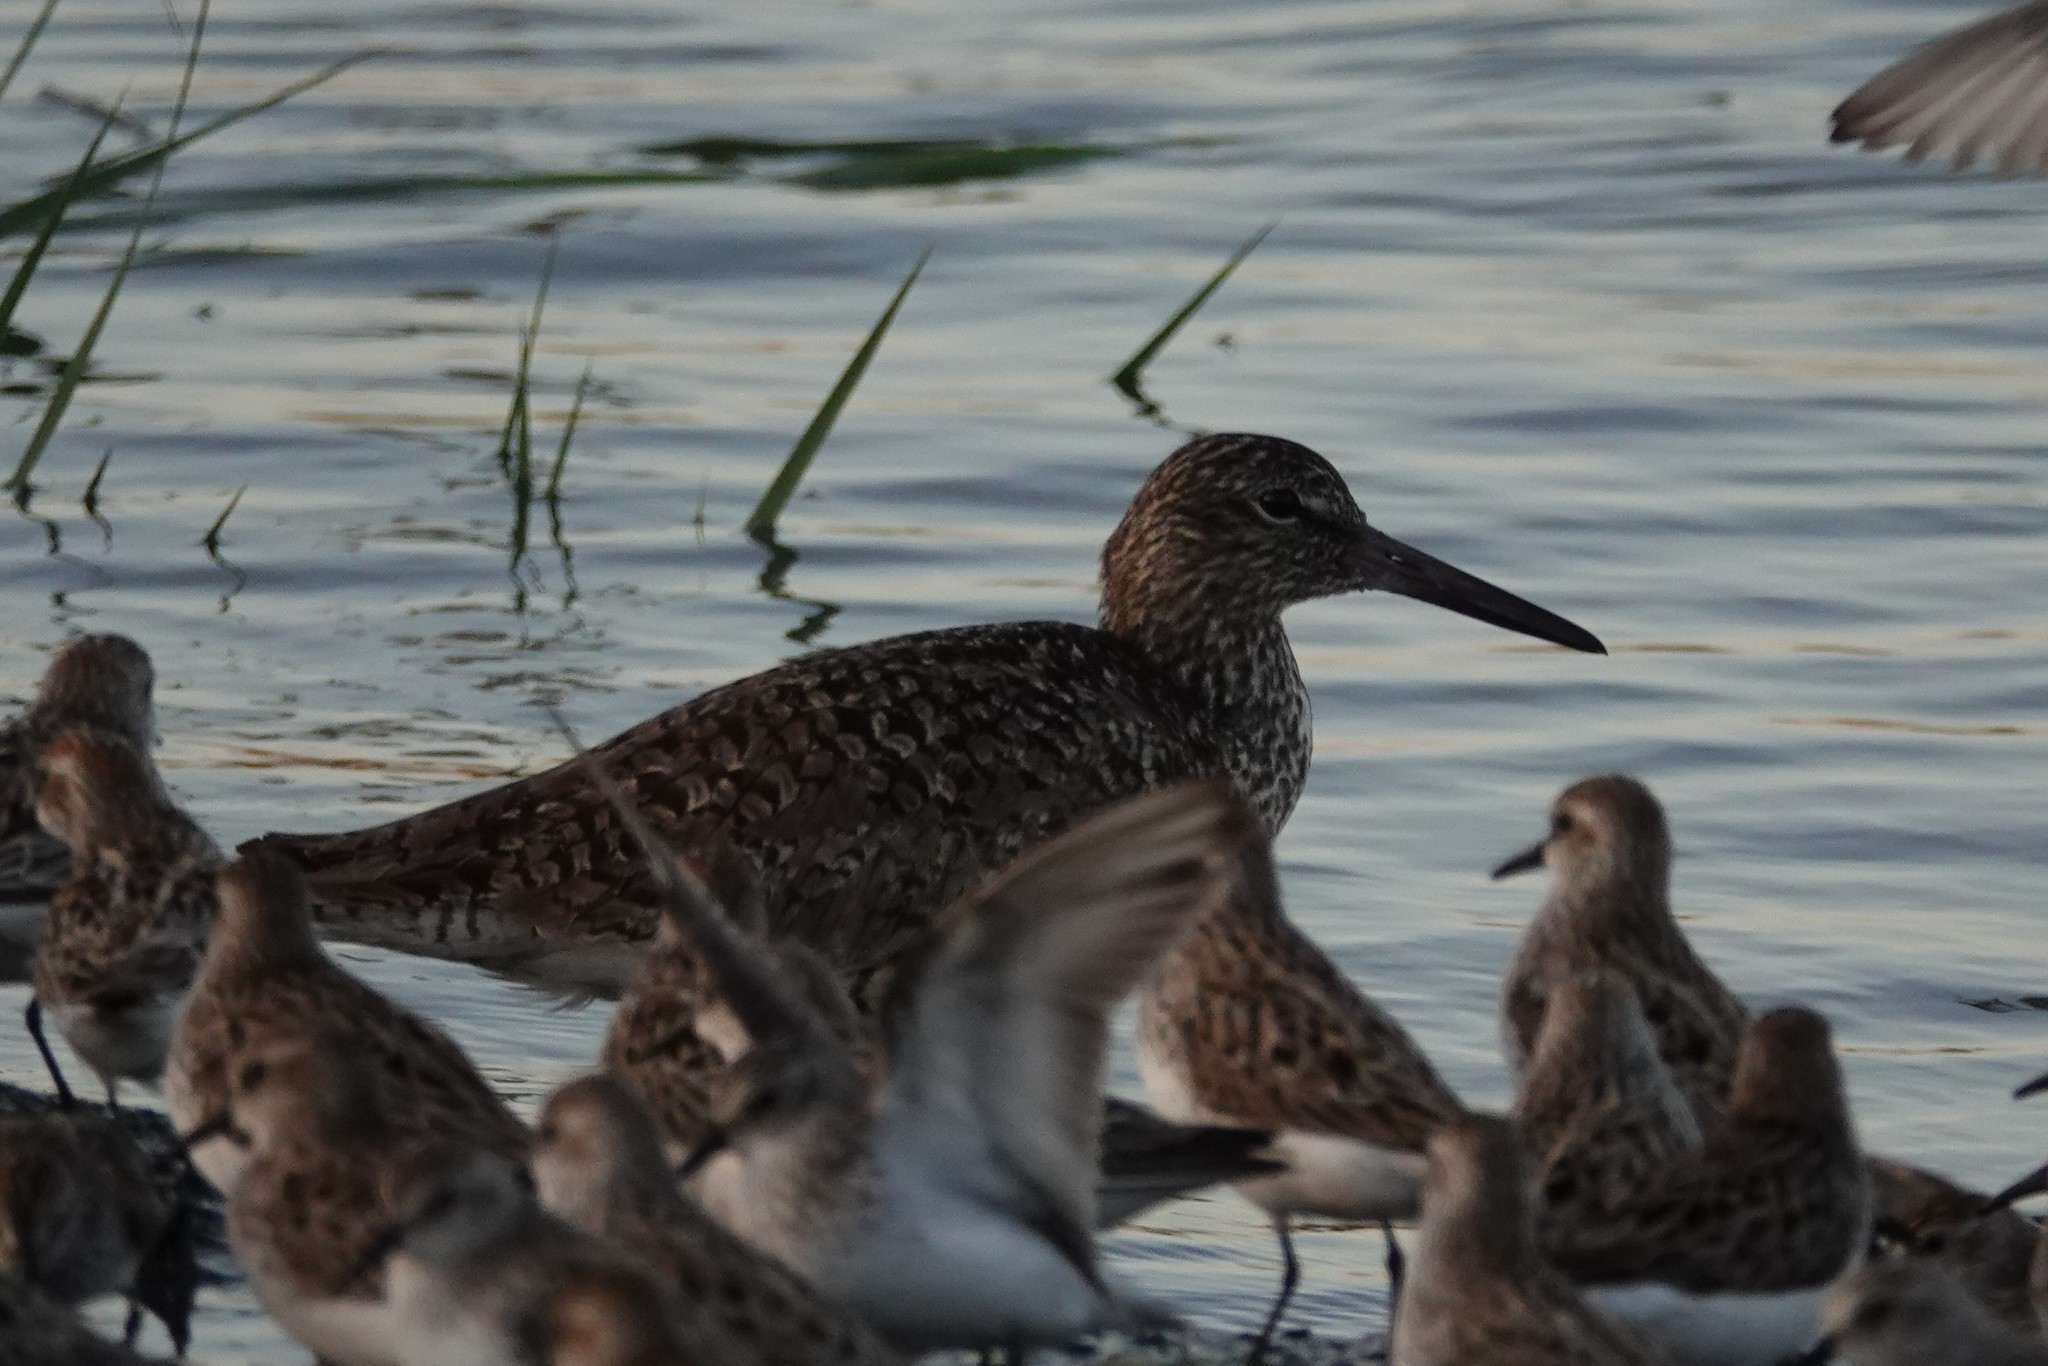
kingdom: Animalia
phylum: Chordata
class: Aves
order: Charadriiformes
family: Scolopacidae
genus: Tringa
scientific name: Tringa semipalmata
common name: Willet
